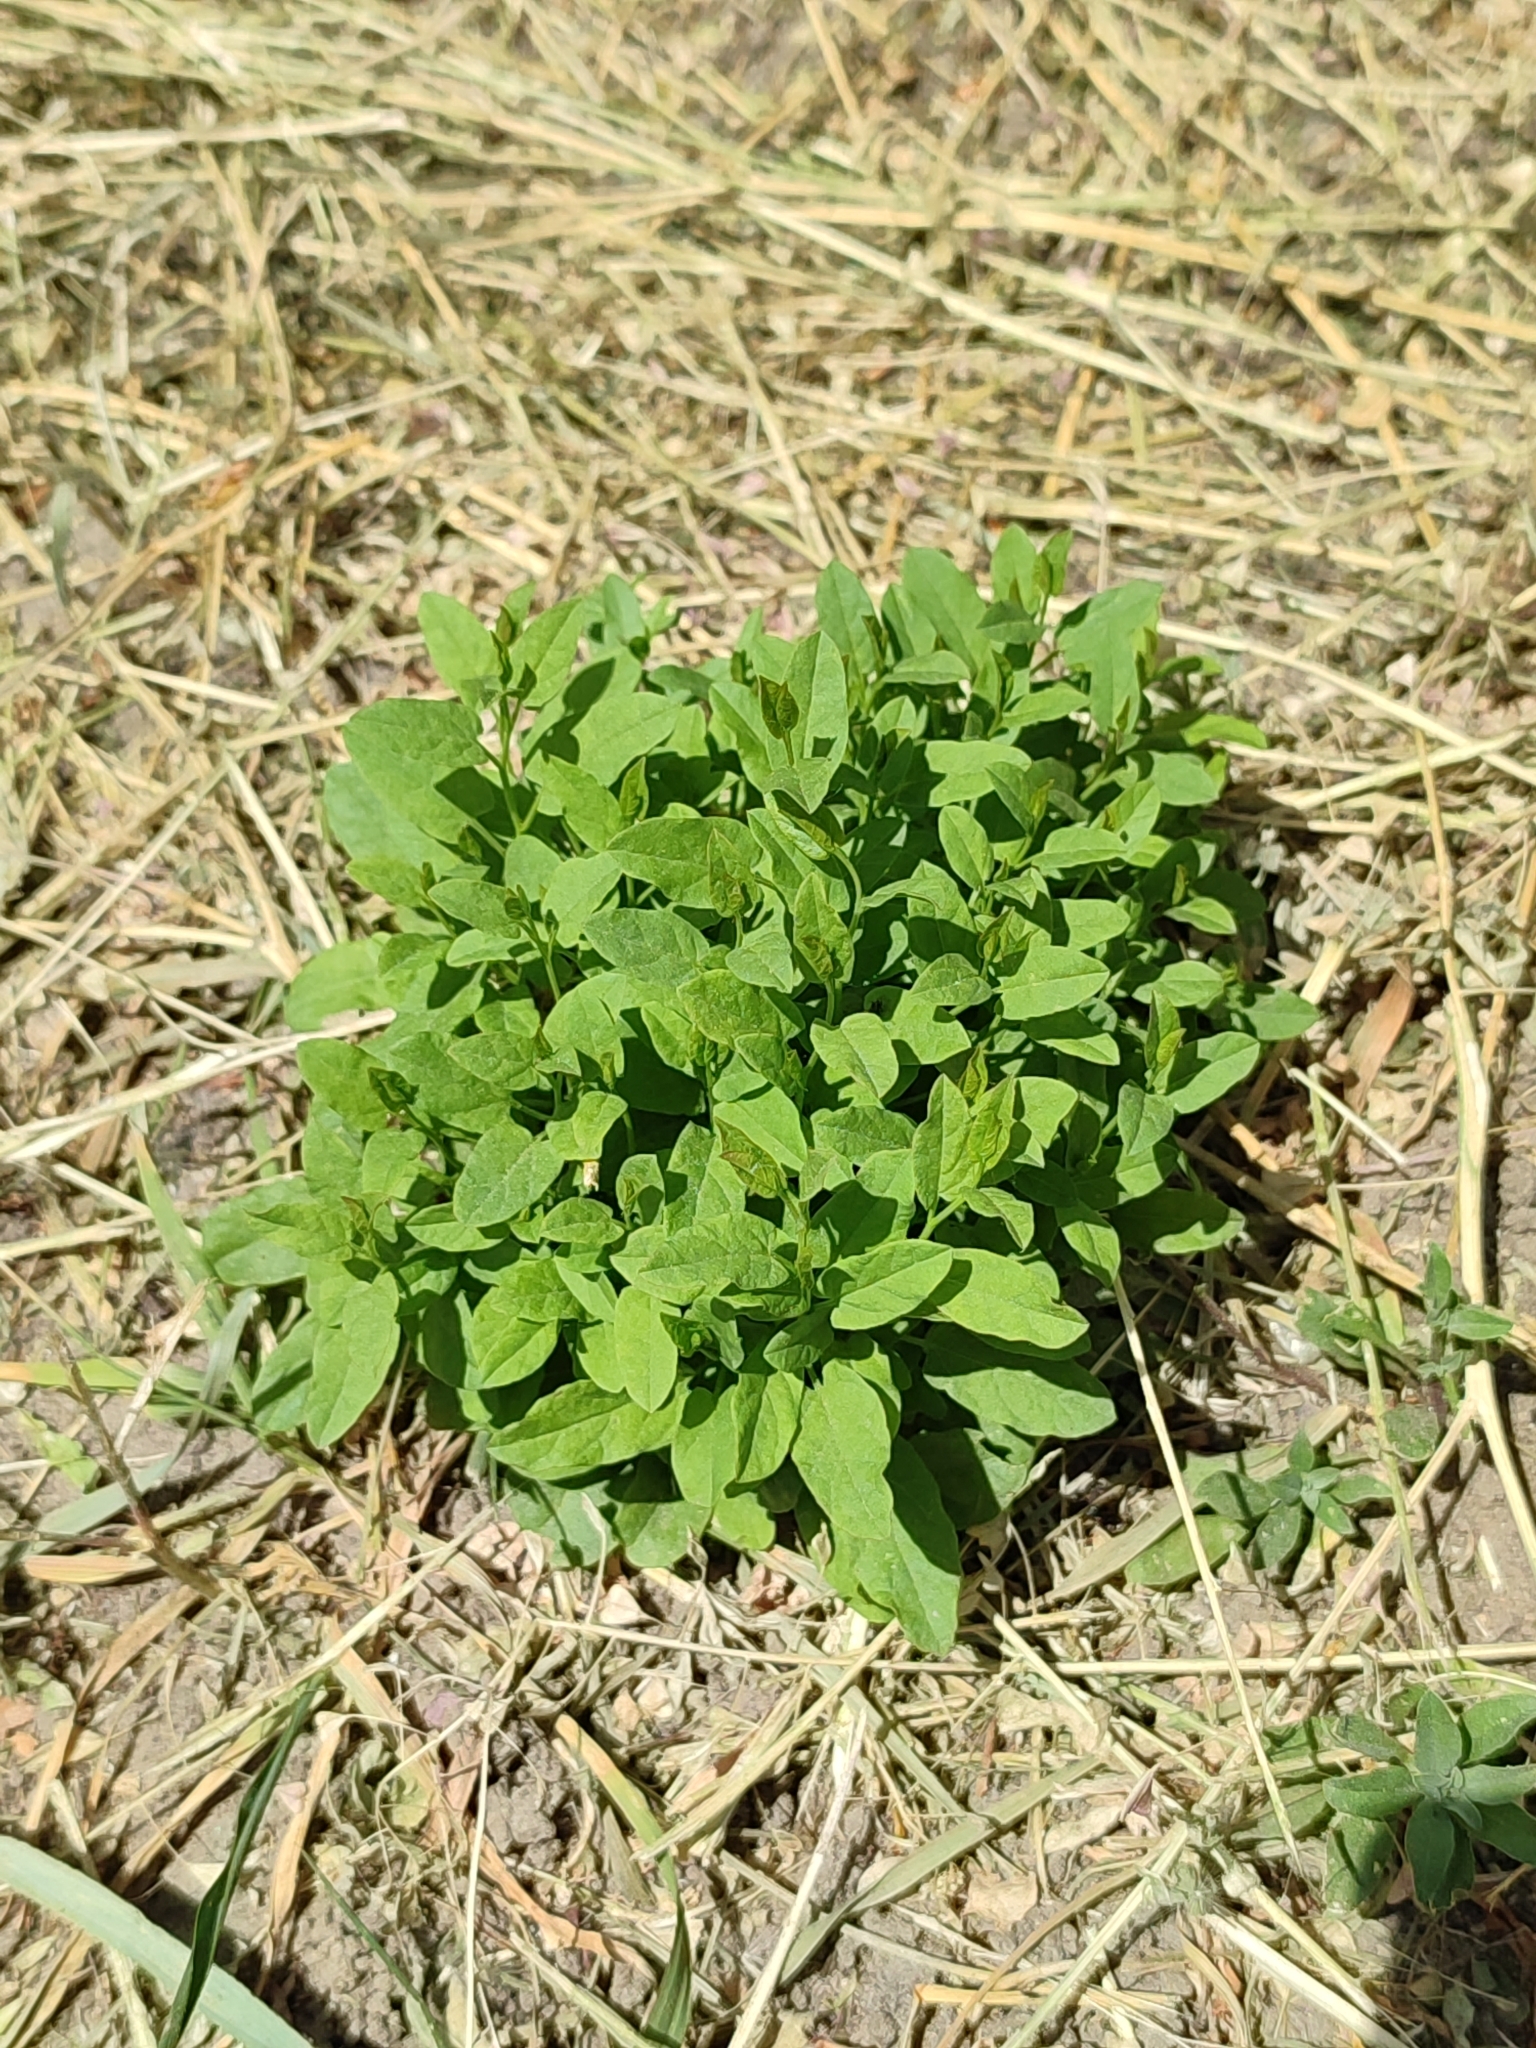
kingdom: Plantae
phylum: Tracheophyta
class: Magnoliopsida
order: Solanales
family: Convolvulaceae
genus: Convolvulus
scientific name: Convolvulus arvensis
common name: Field bindweed
